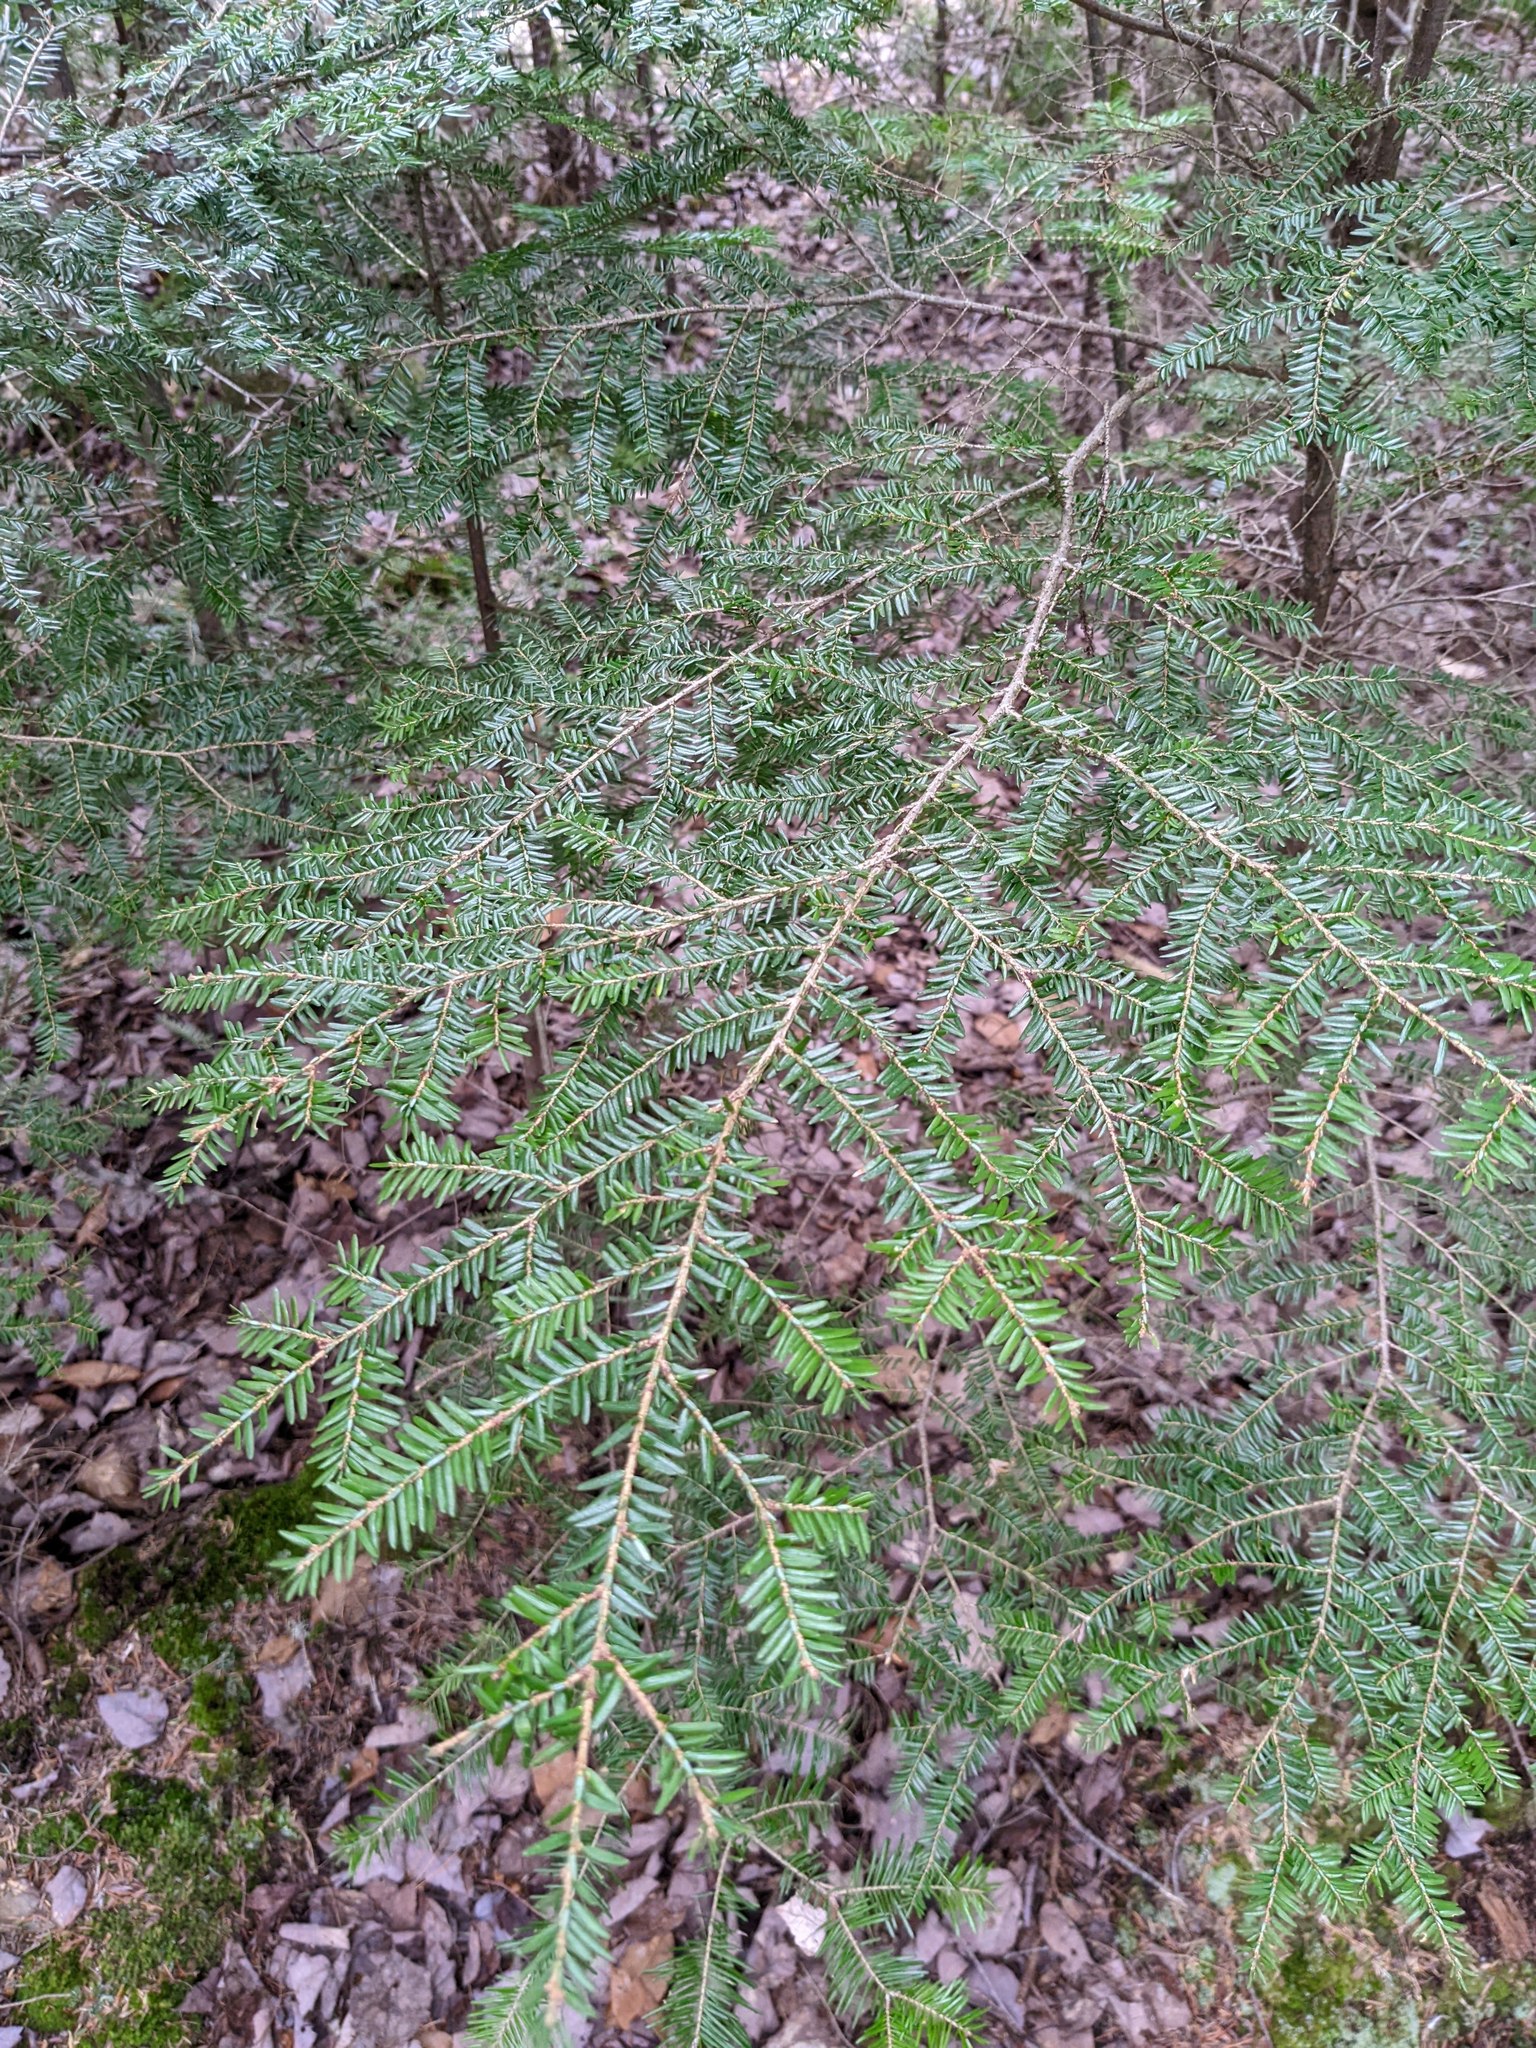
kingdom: Plantae
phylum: Tracheophyta
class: Pinopsida
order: Pinales
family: Pinaceae
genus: Tsuga
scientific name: Tsuga canadensis
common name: Eastern hemlock
